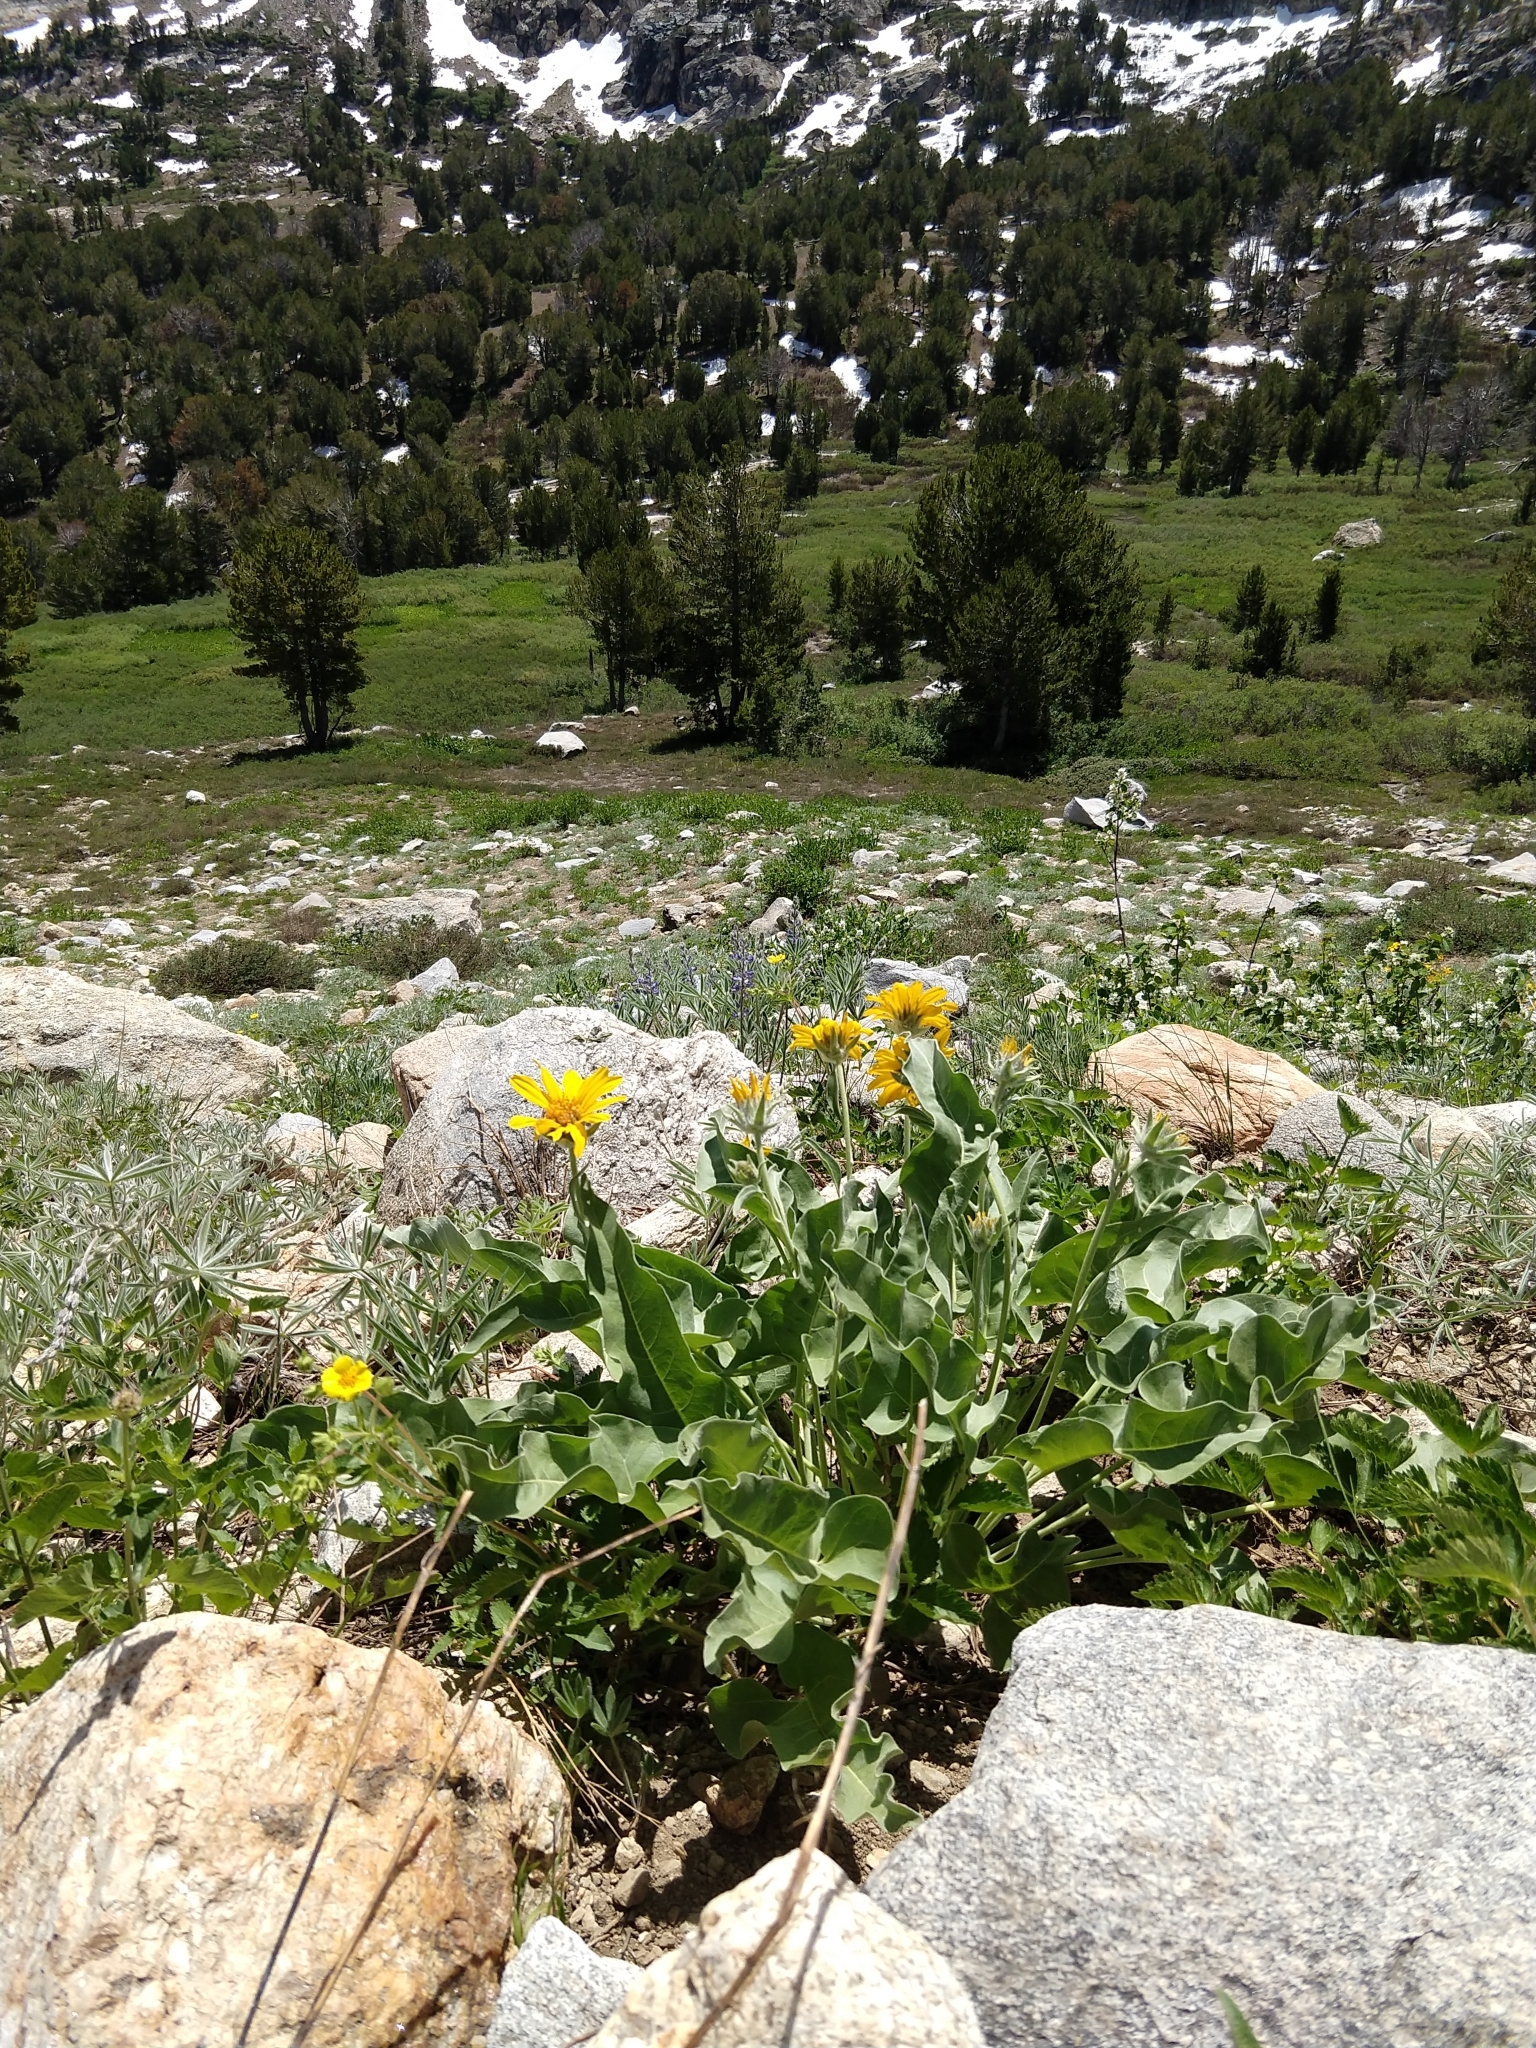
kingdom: Plantae
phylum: Tracheophyta
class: Magnoliopsida
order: Asterales
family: Asteraceae
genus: Wyethia
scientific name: Wyethia sagittata
